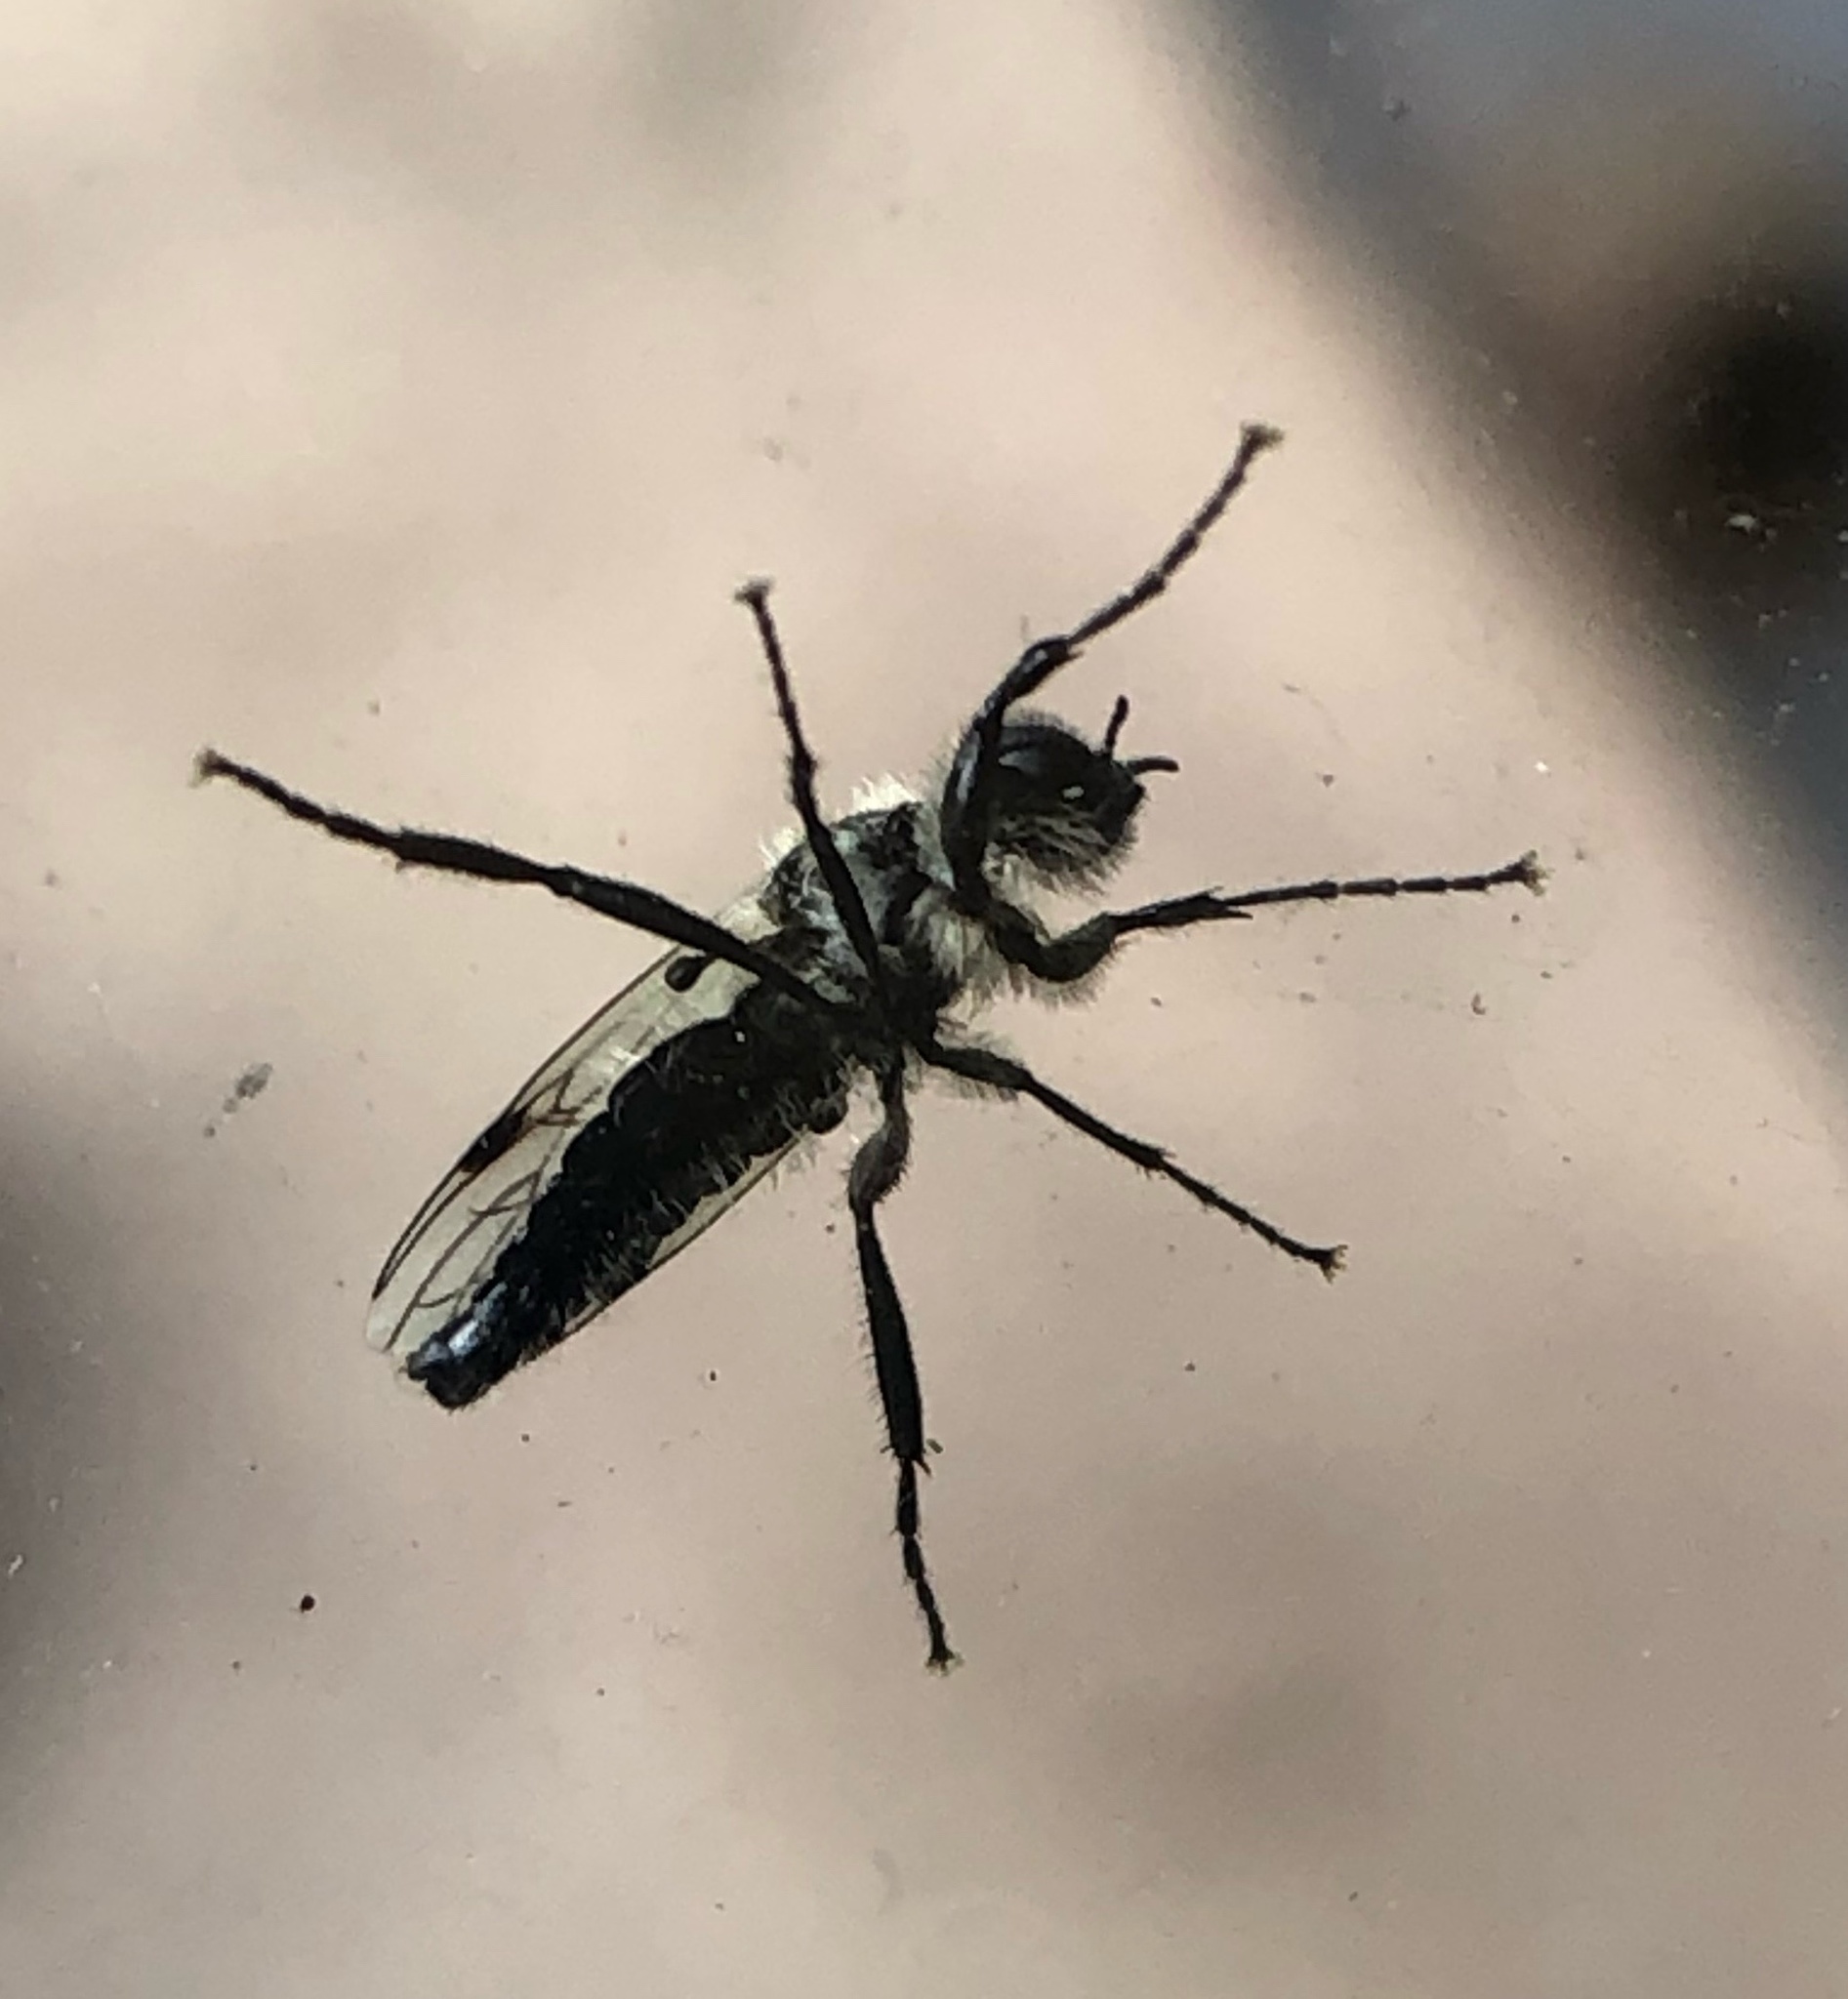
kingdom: Animalia
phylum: Arthropoda
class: Insecta
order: Diptera
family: Bibionidae
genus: Bibio
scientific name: Bibio albipennis
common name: White-winged march fly
